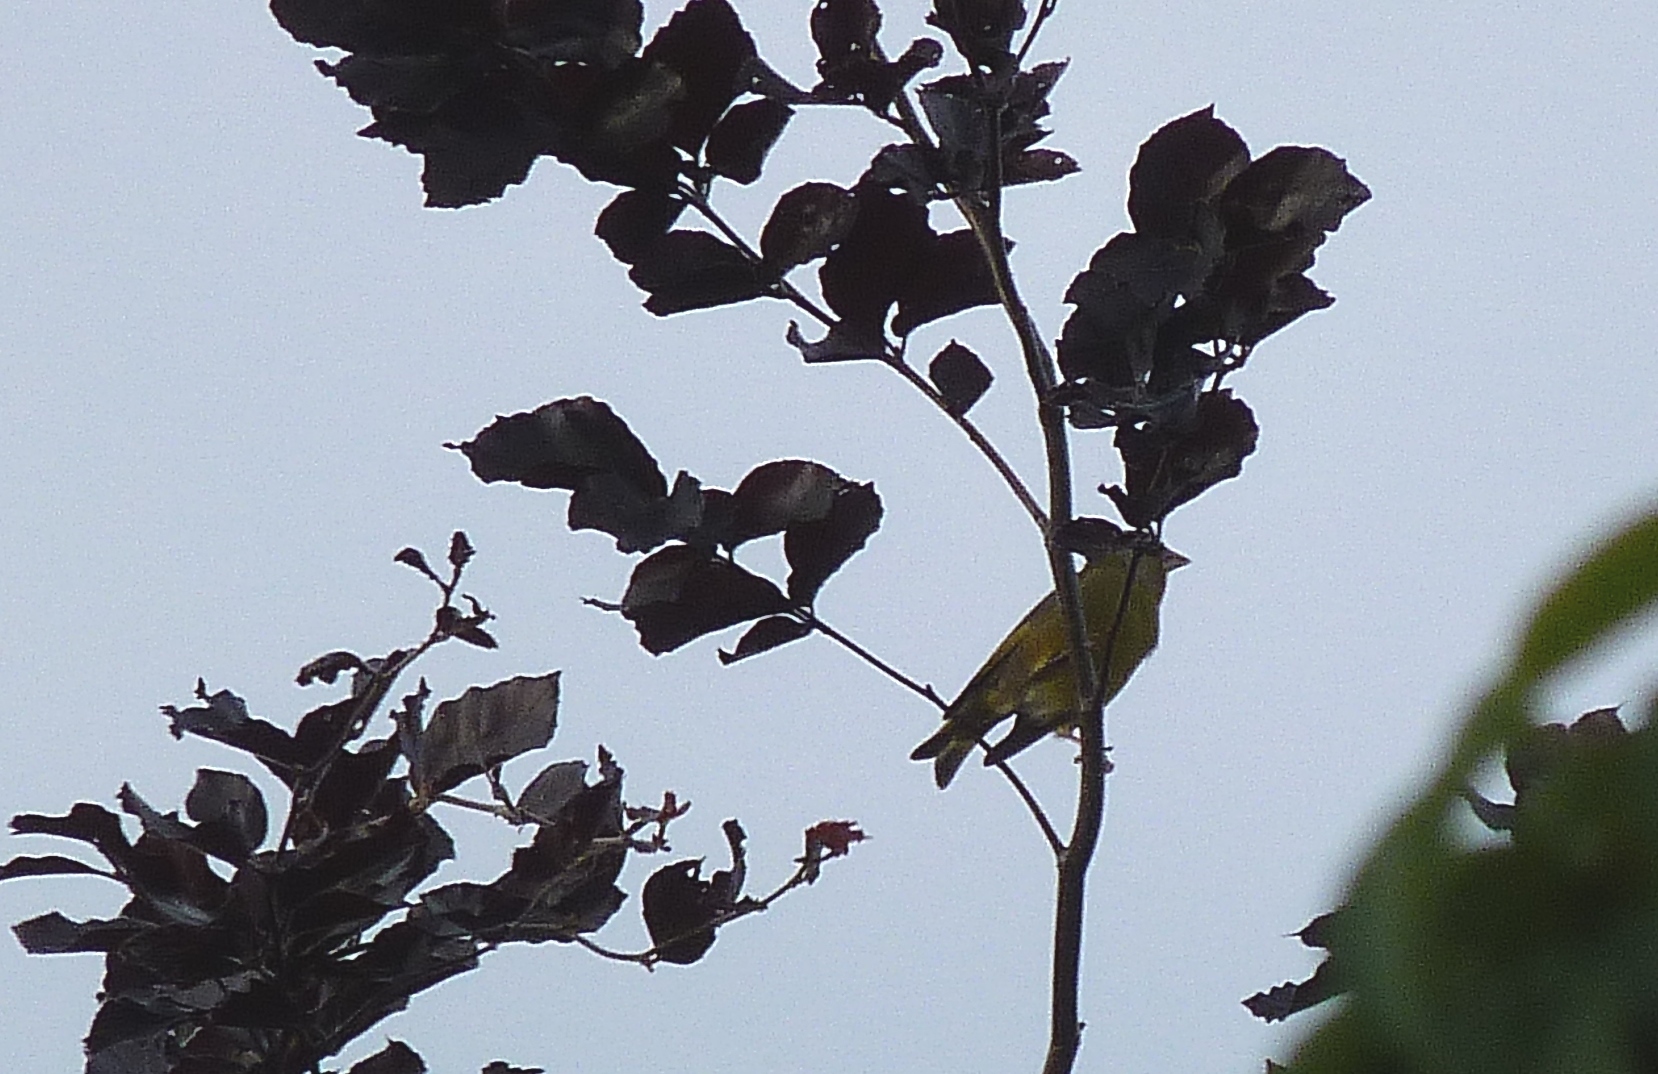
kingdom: Plantae
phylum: Tracheophyta
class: Liliopsida
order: Poales
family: Poaceae
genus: Chloris
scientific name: Chloris chloris
